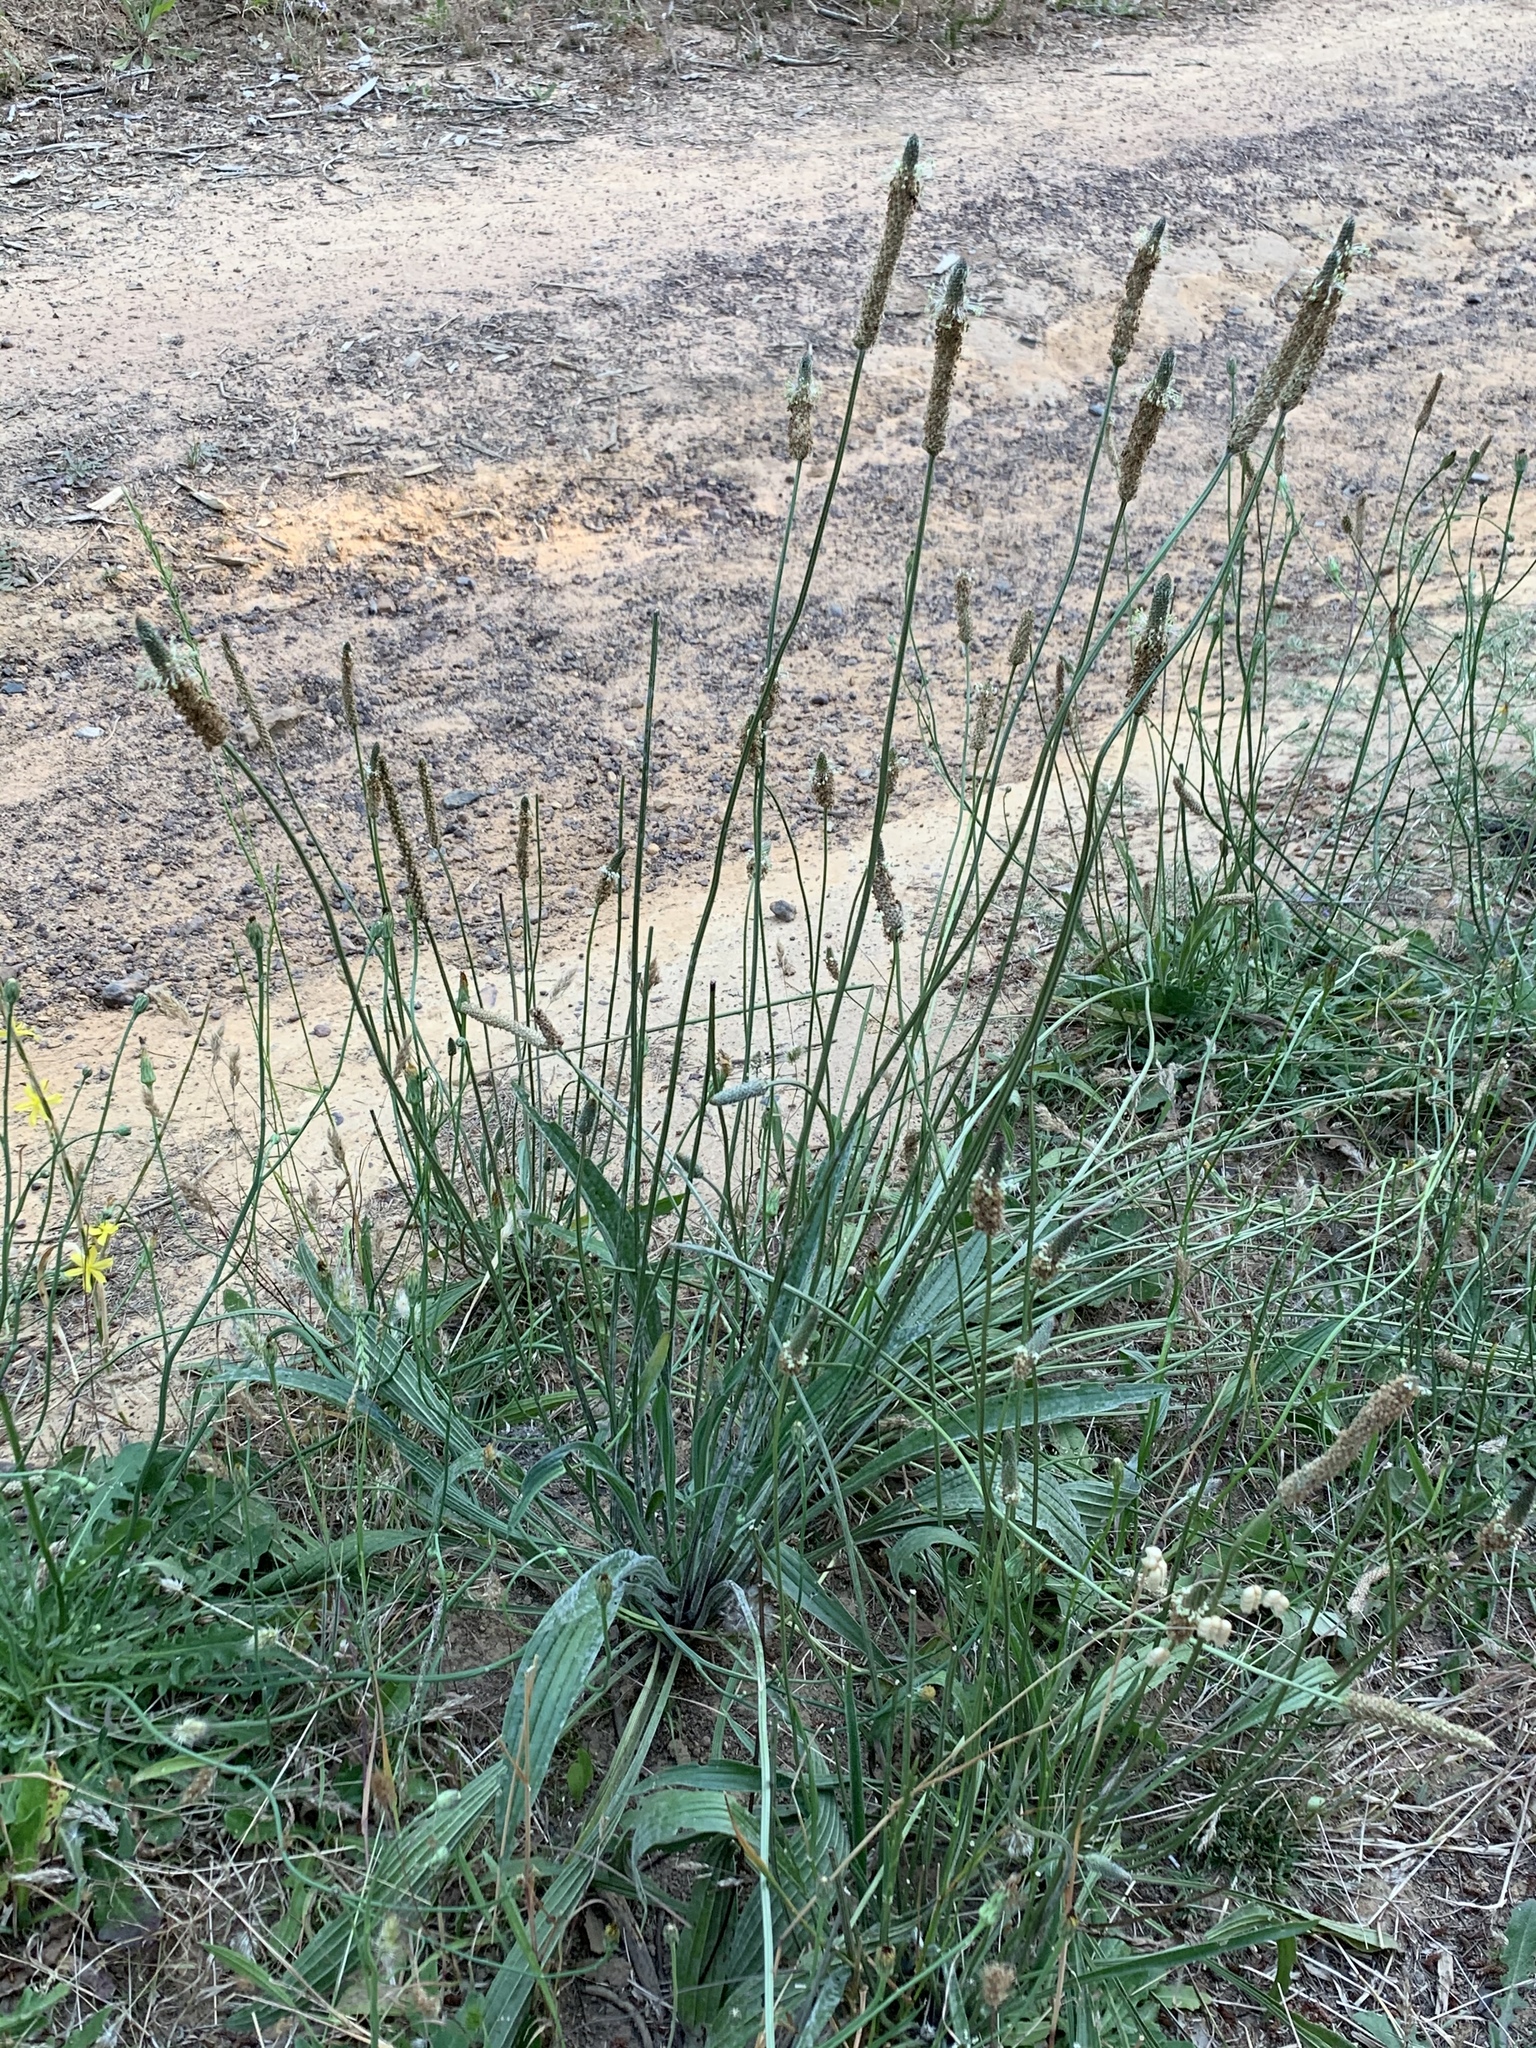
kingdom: Plantae
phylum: Tracheophyta
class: Magnoliopsida
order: Lamiales
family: Plantaginaceae
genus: Plantago
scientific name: Plantago lanceolata
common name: Ribwort plantain
